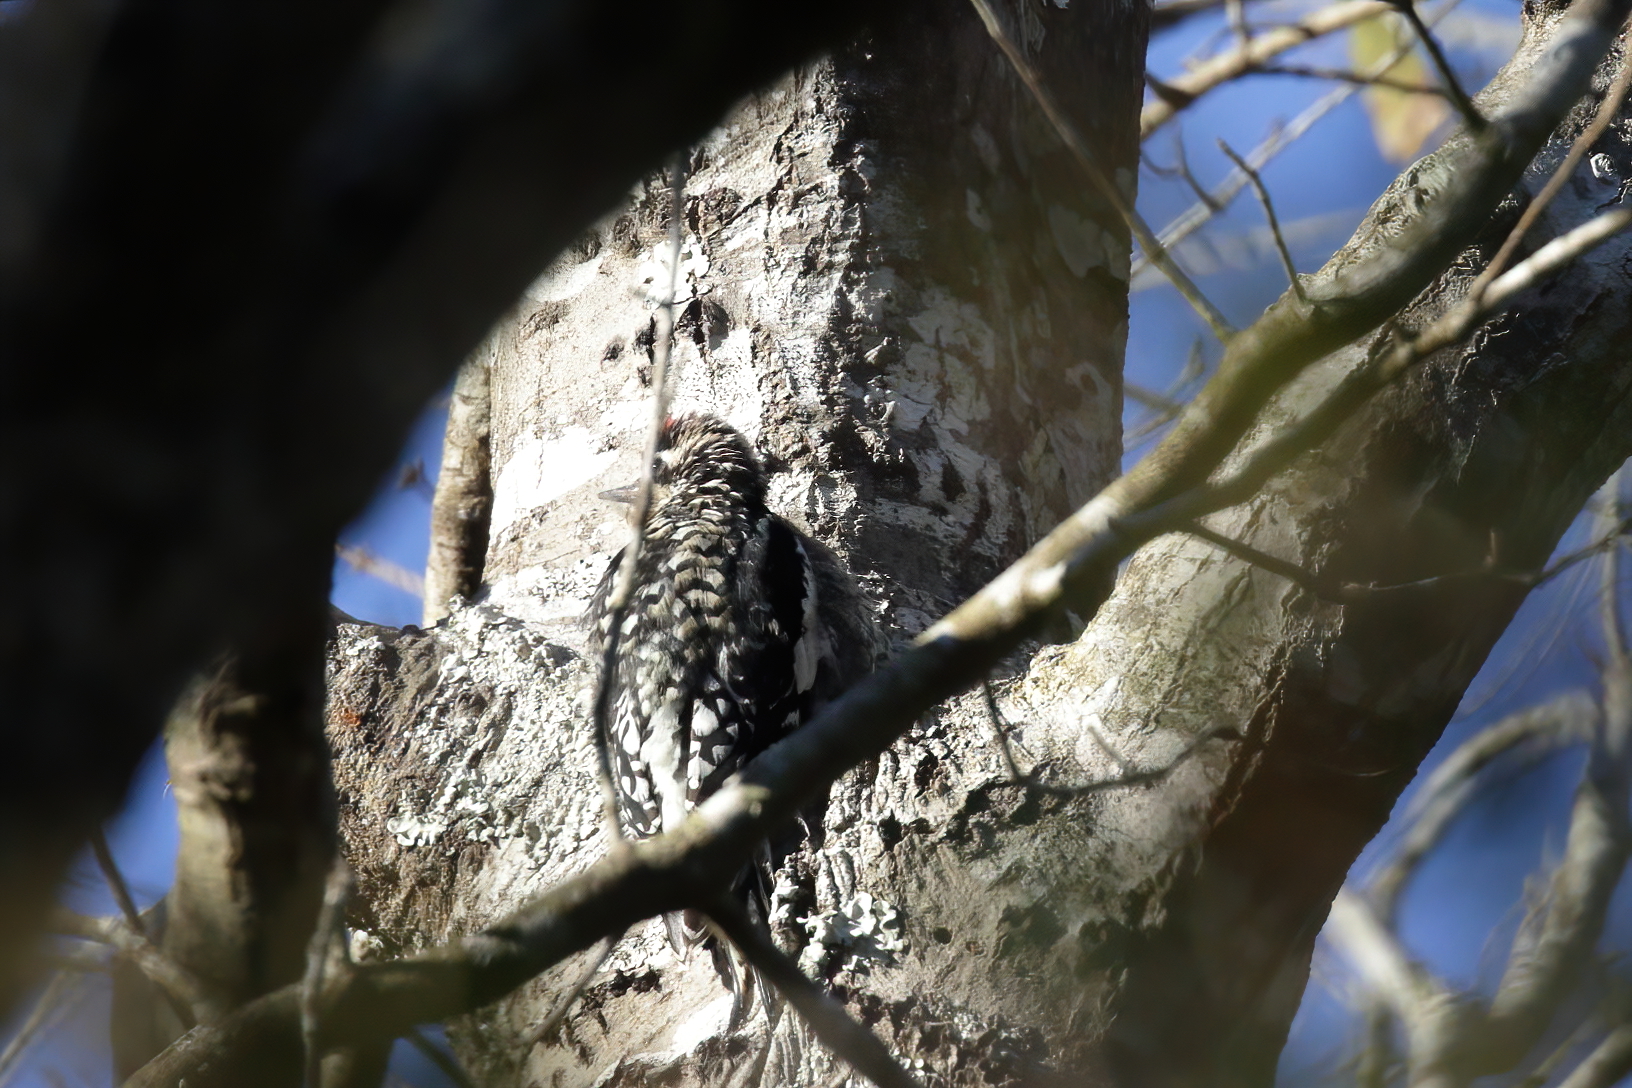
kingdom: Animalia
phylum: Chordata
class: Aves
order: Piciformes
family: Picidae
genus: Sphyrapicus
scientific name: Sphyrapicus varius
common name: Yellow-bellied sapsucker
